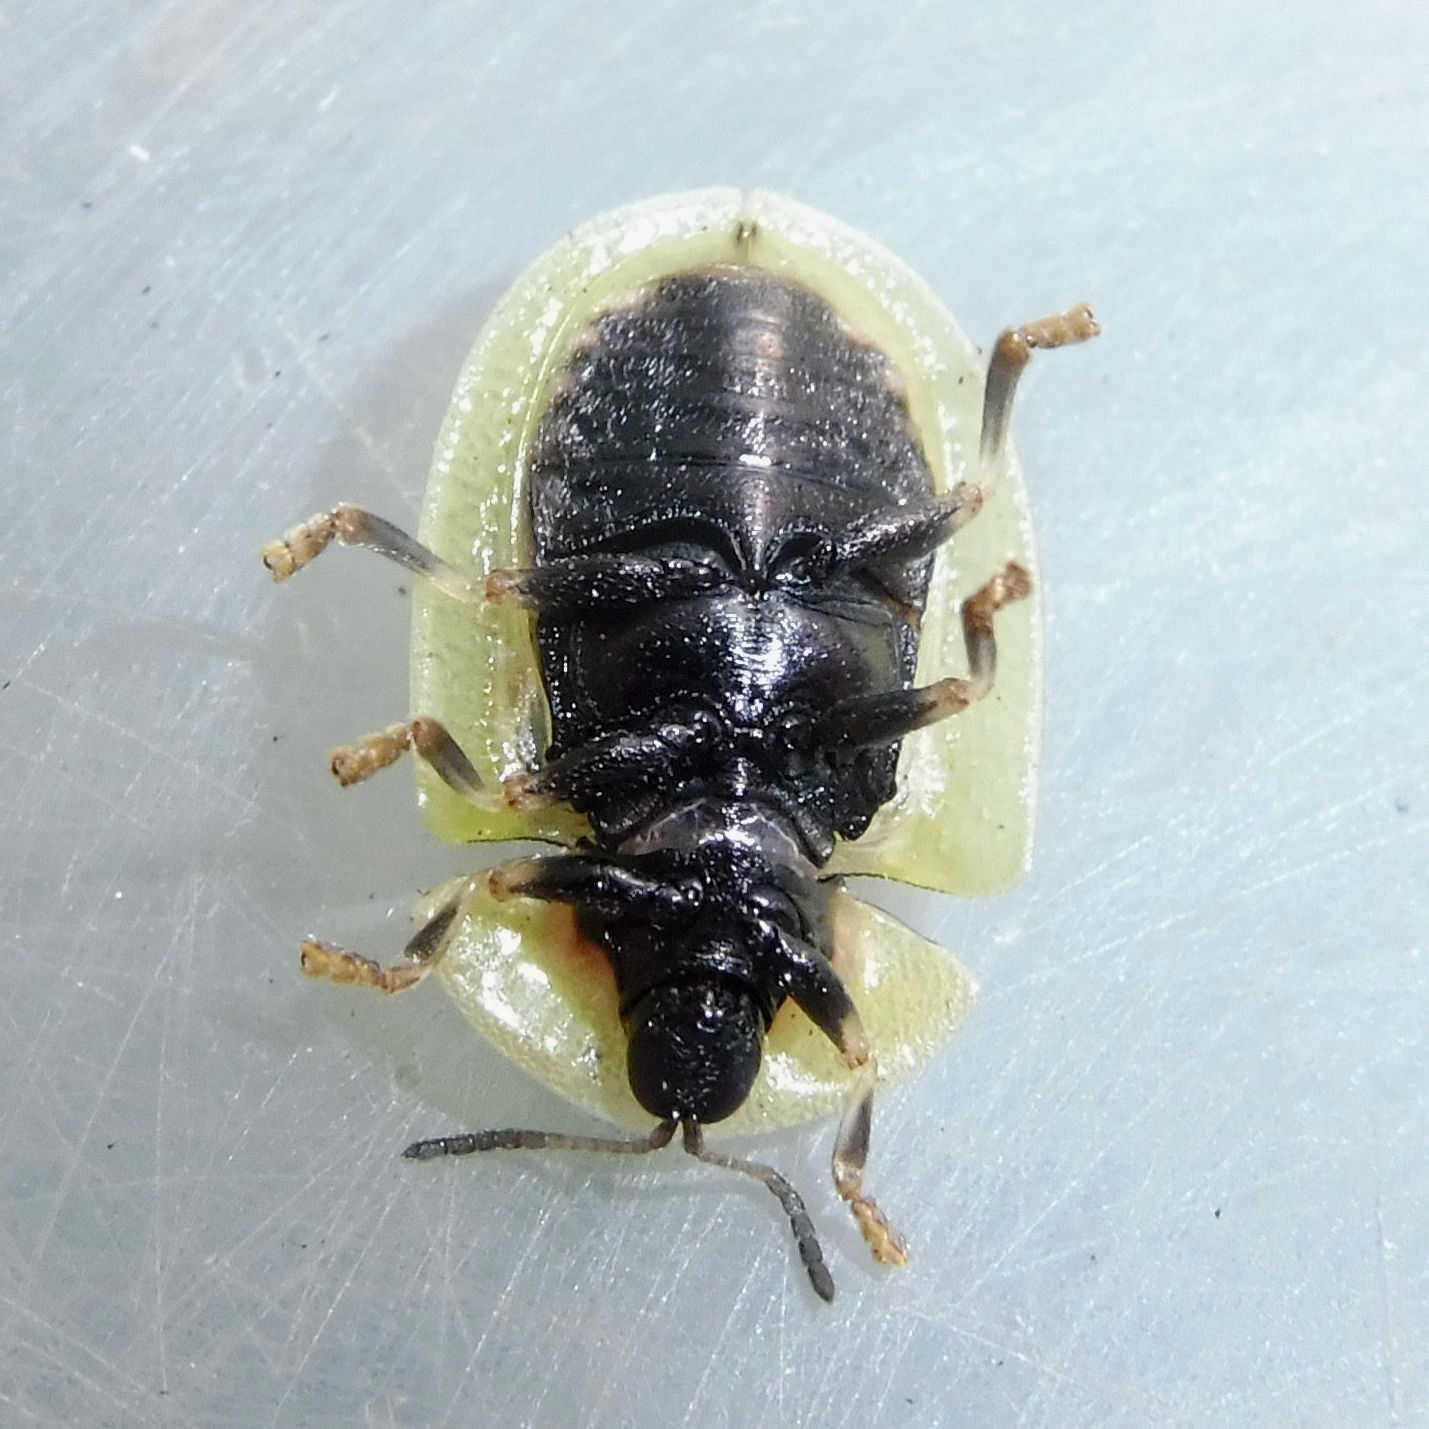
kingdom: Animalia
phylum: Arthropoda
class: Insecta
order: Coleoptera
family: Chrysomelidae
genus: Cassida
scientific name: Cassida rubiginosa
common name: Thistle tortoise beetle
